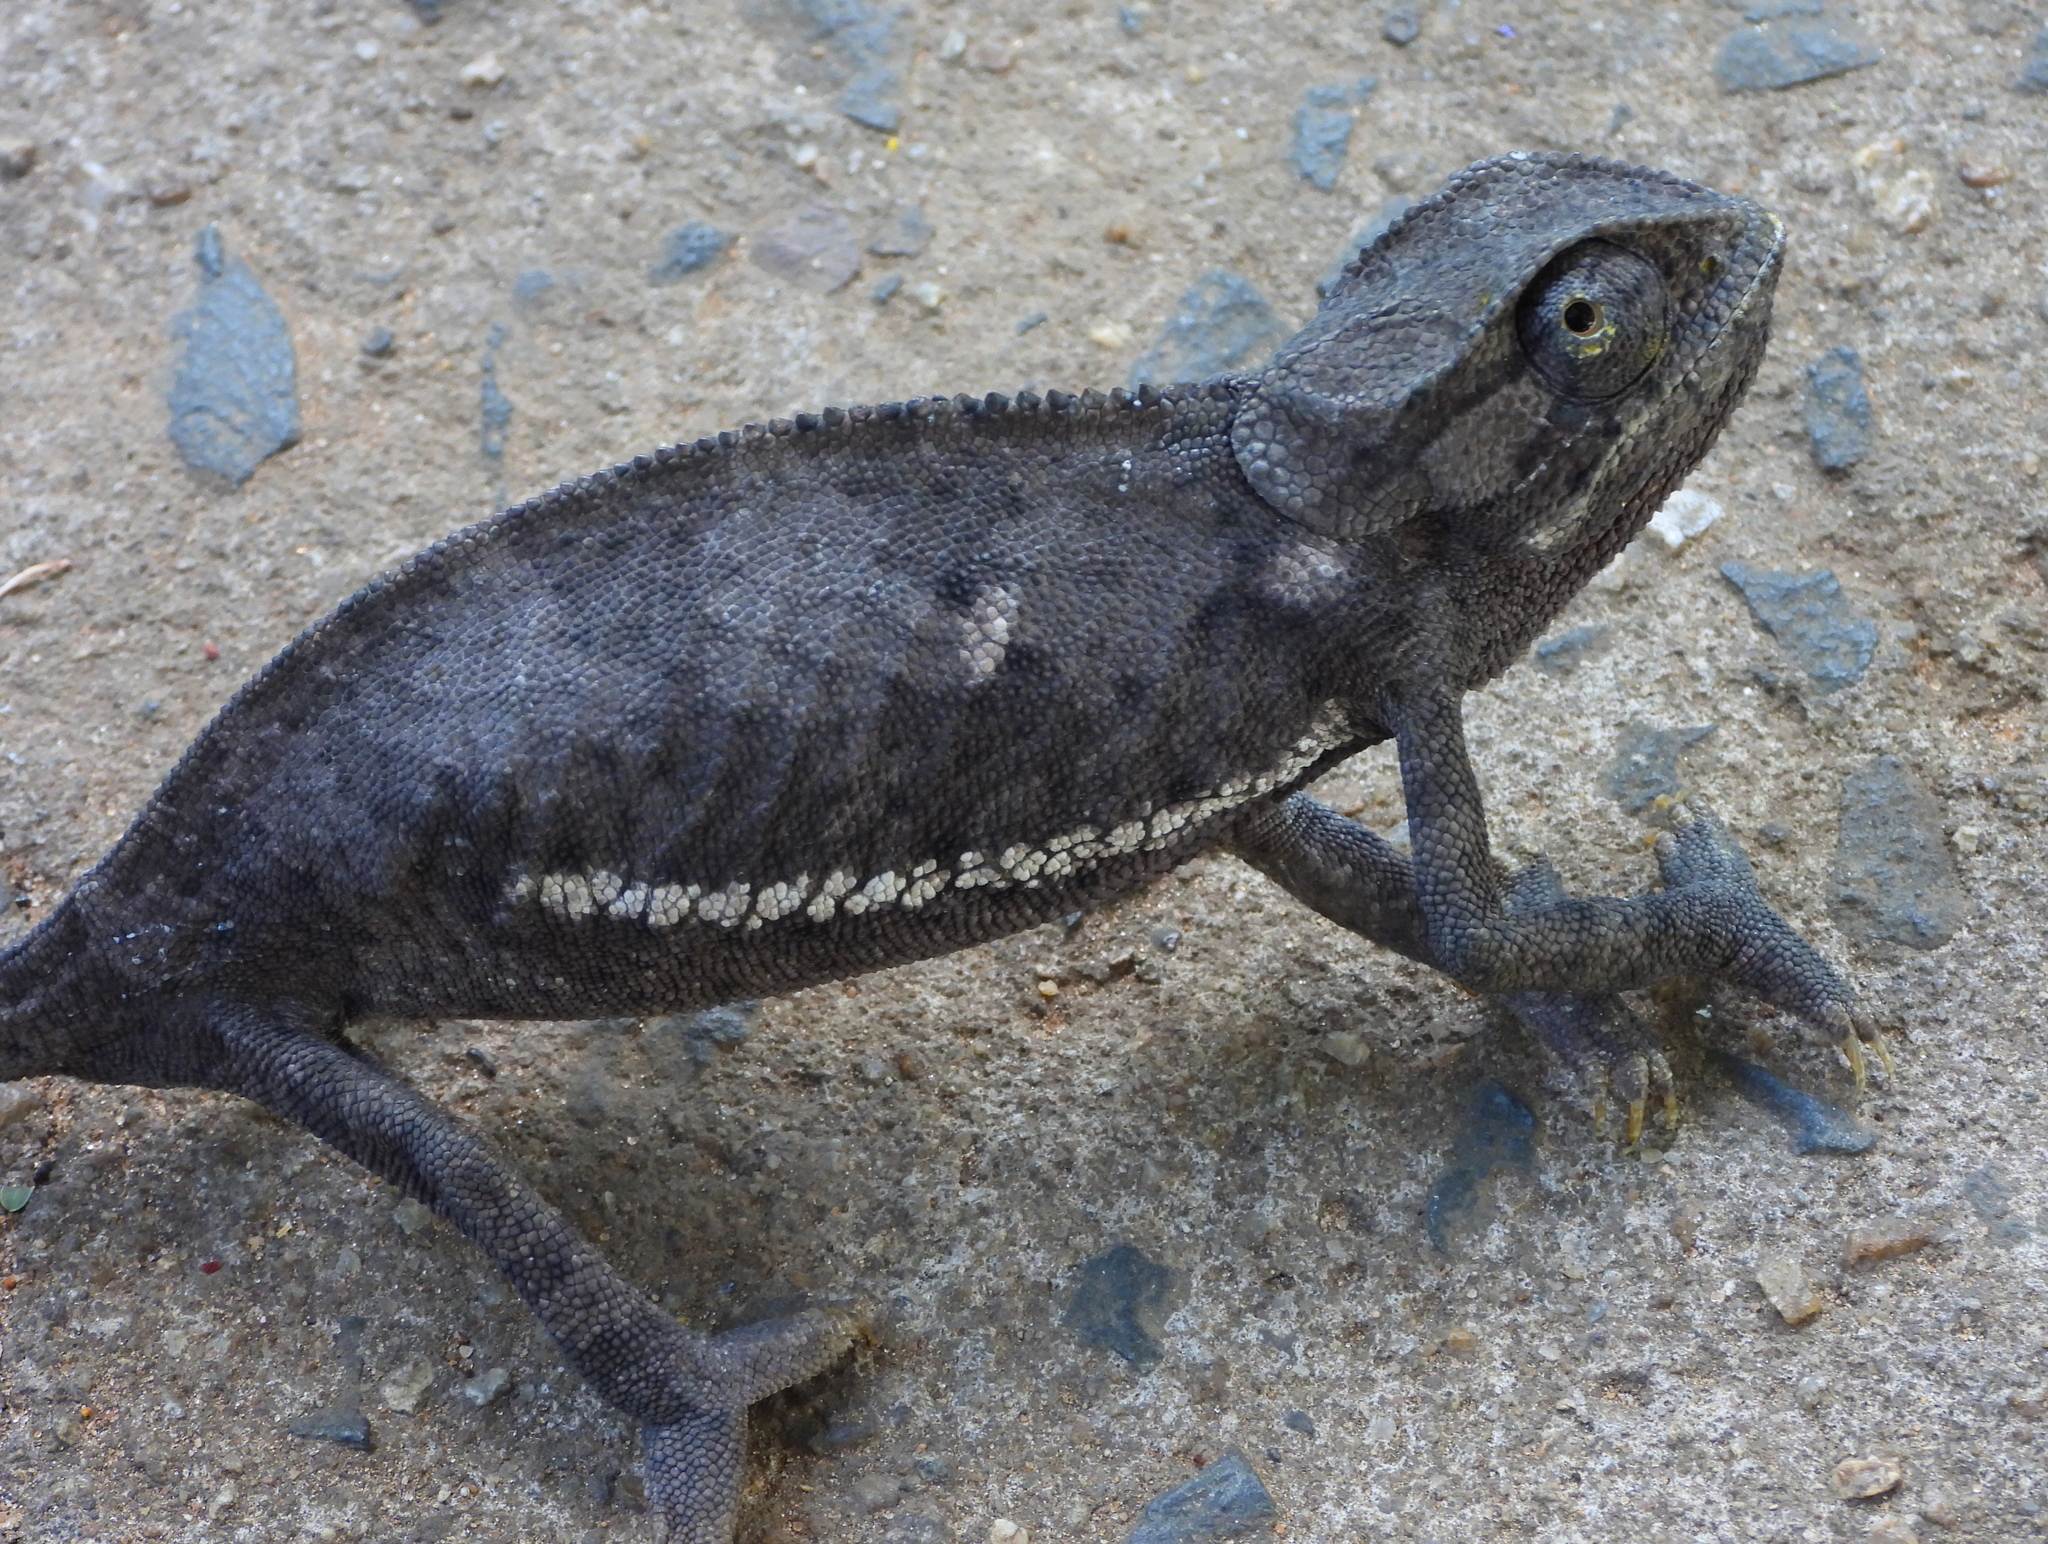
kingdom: Animalia
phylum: Chordata
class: Squamata
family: Chamaeleonidae
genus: Chamaeleo
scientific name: Chamaeleo dilepis
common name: Flapneck chameleon
